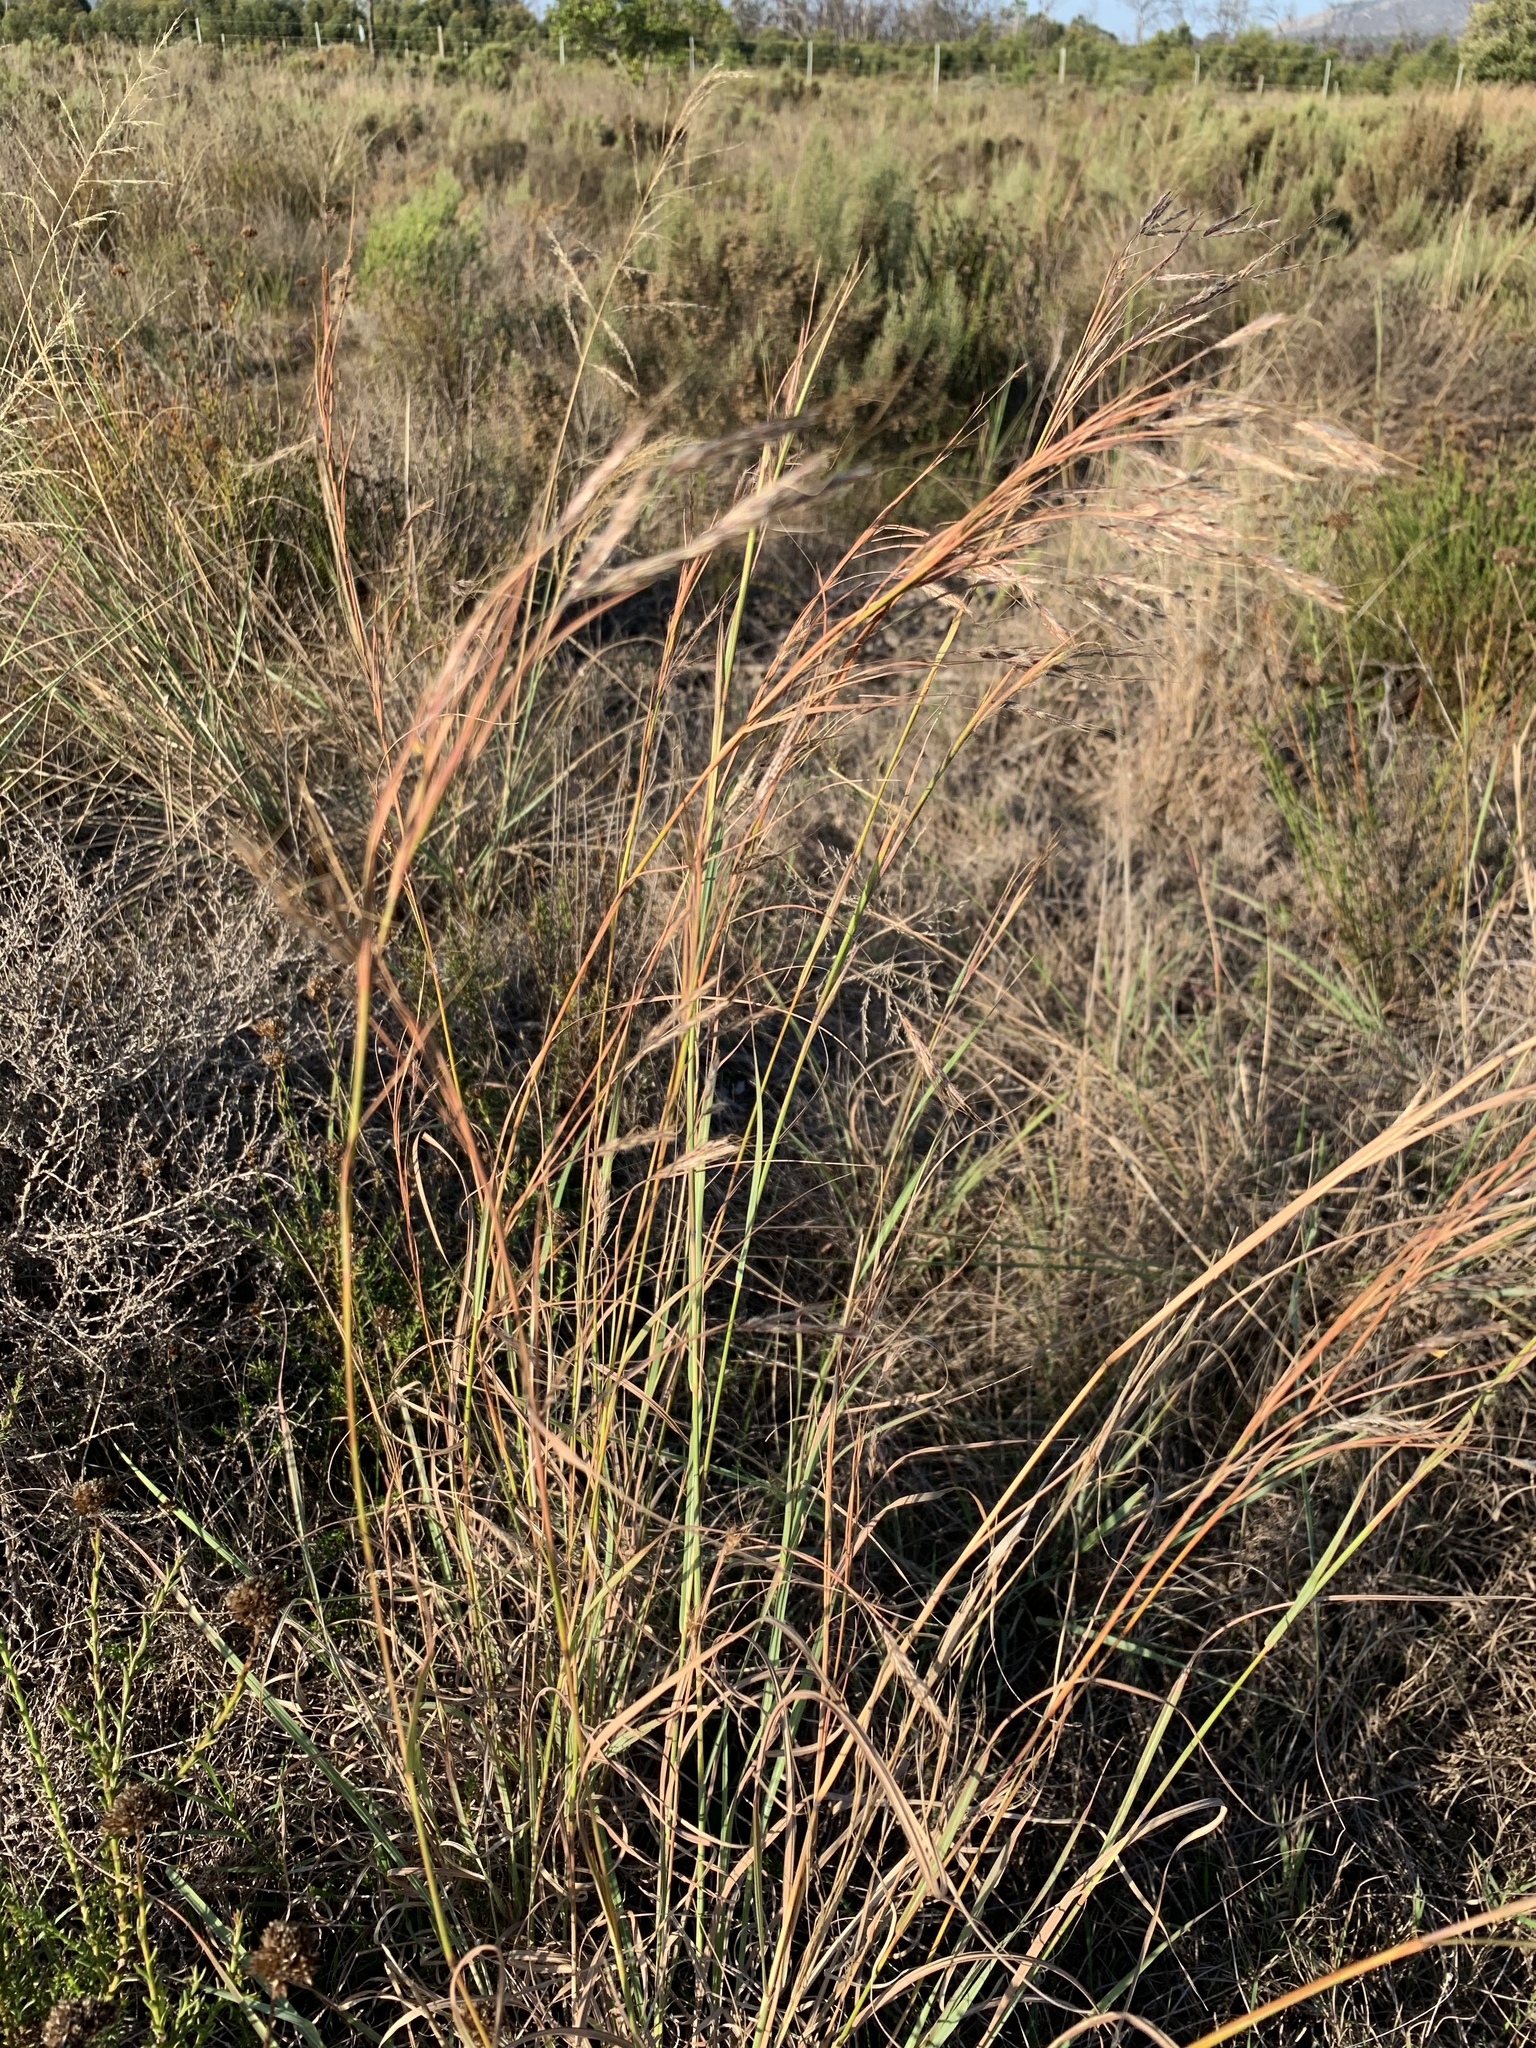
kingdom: Plantae
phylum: Tracheophyta
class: Liliopsida
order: Poales
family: Poaceae
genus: Hyparrhenia
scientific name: Hyparrhenia hirta
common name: Thatching grass
